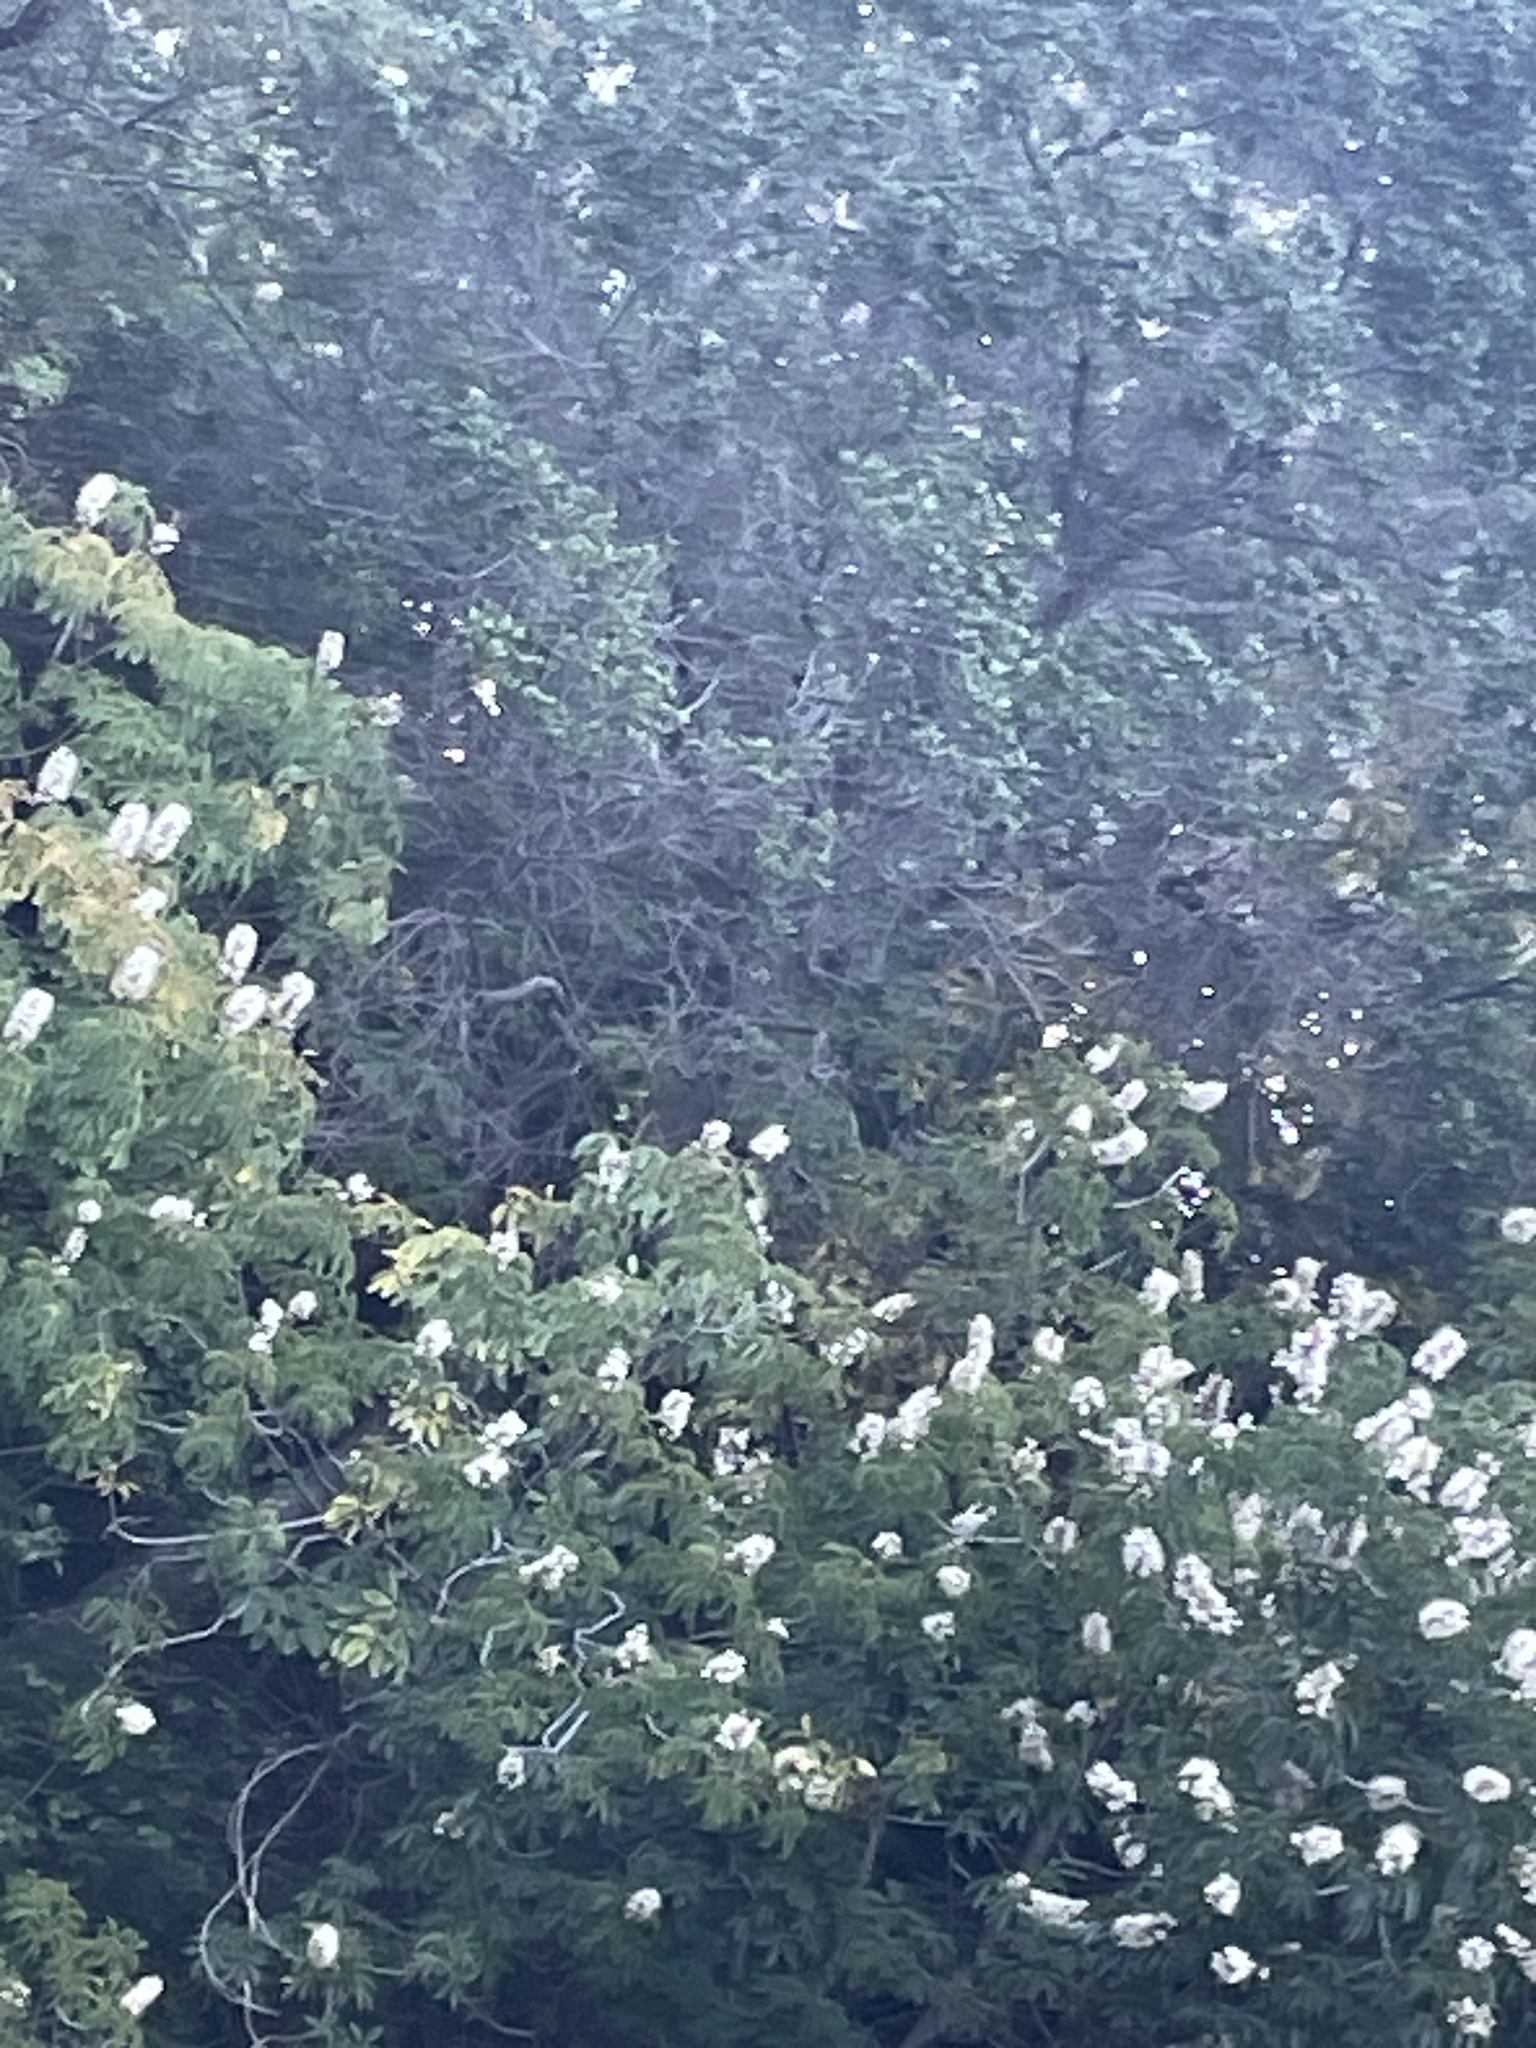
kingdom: Plantae
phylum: Tracheophyta
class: Magnoliopsida
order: Sapindales
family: Sapindaceae
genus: Aesculus
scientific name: Aesculus californica
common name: California buckeye
